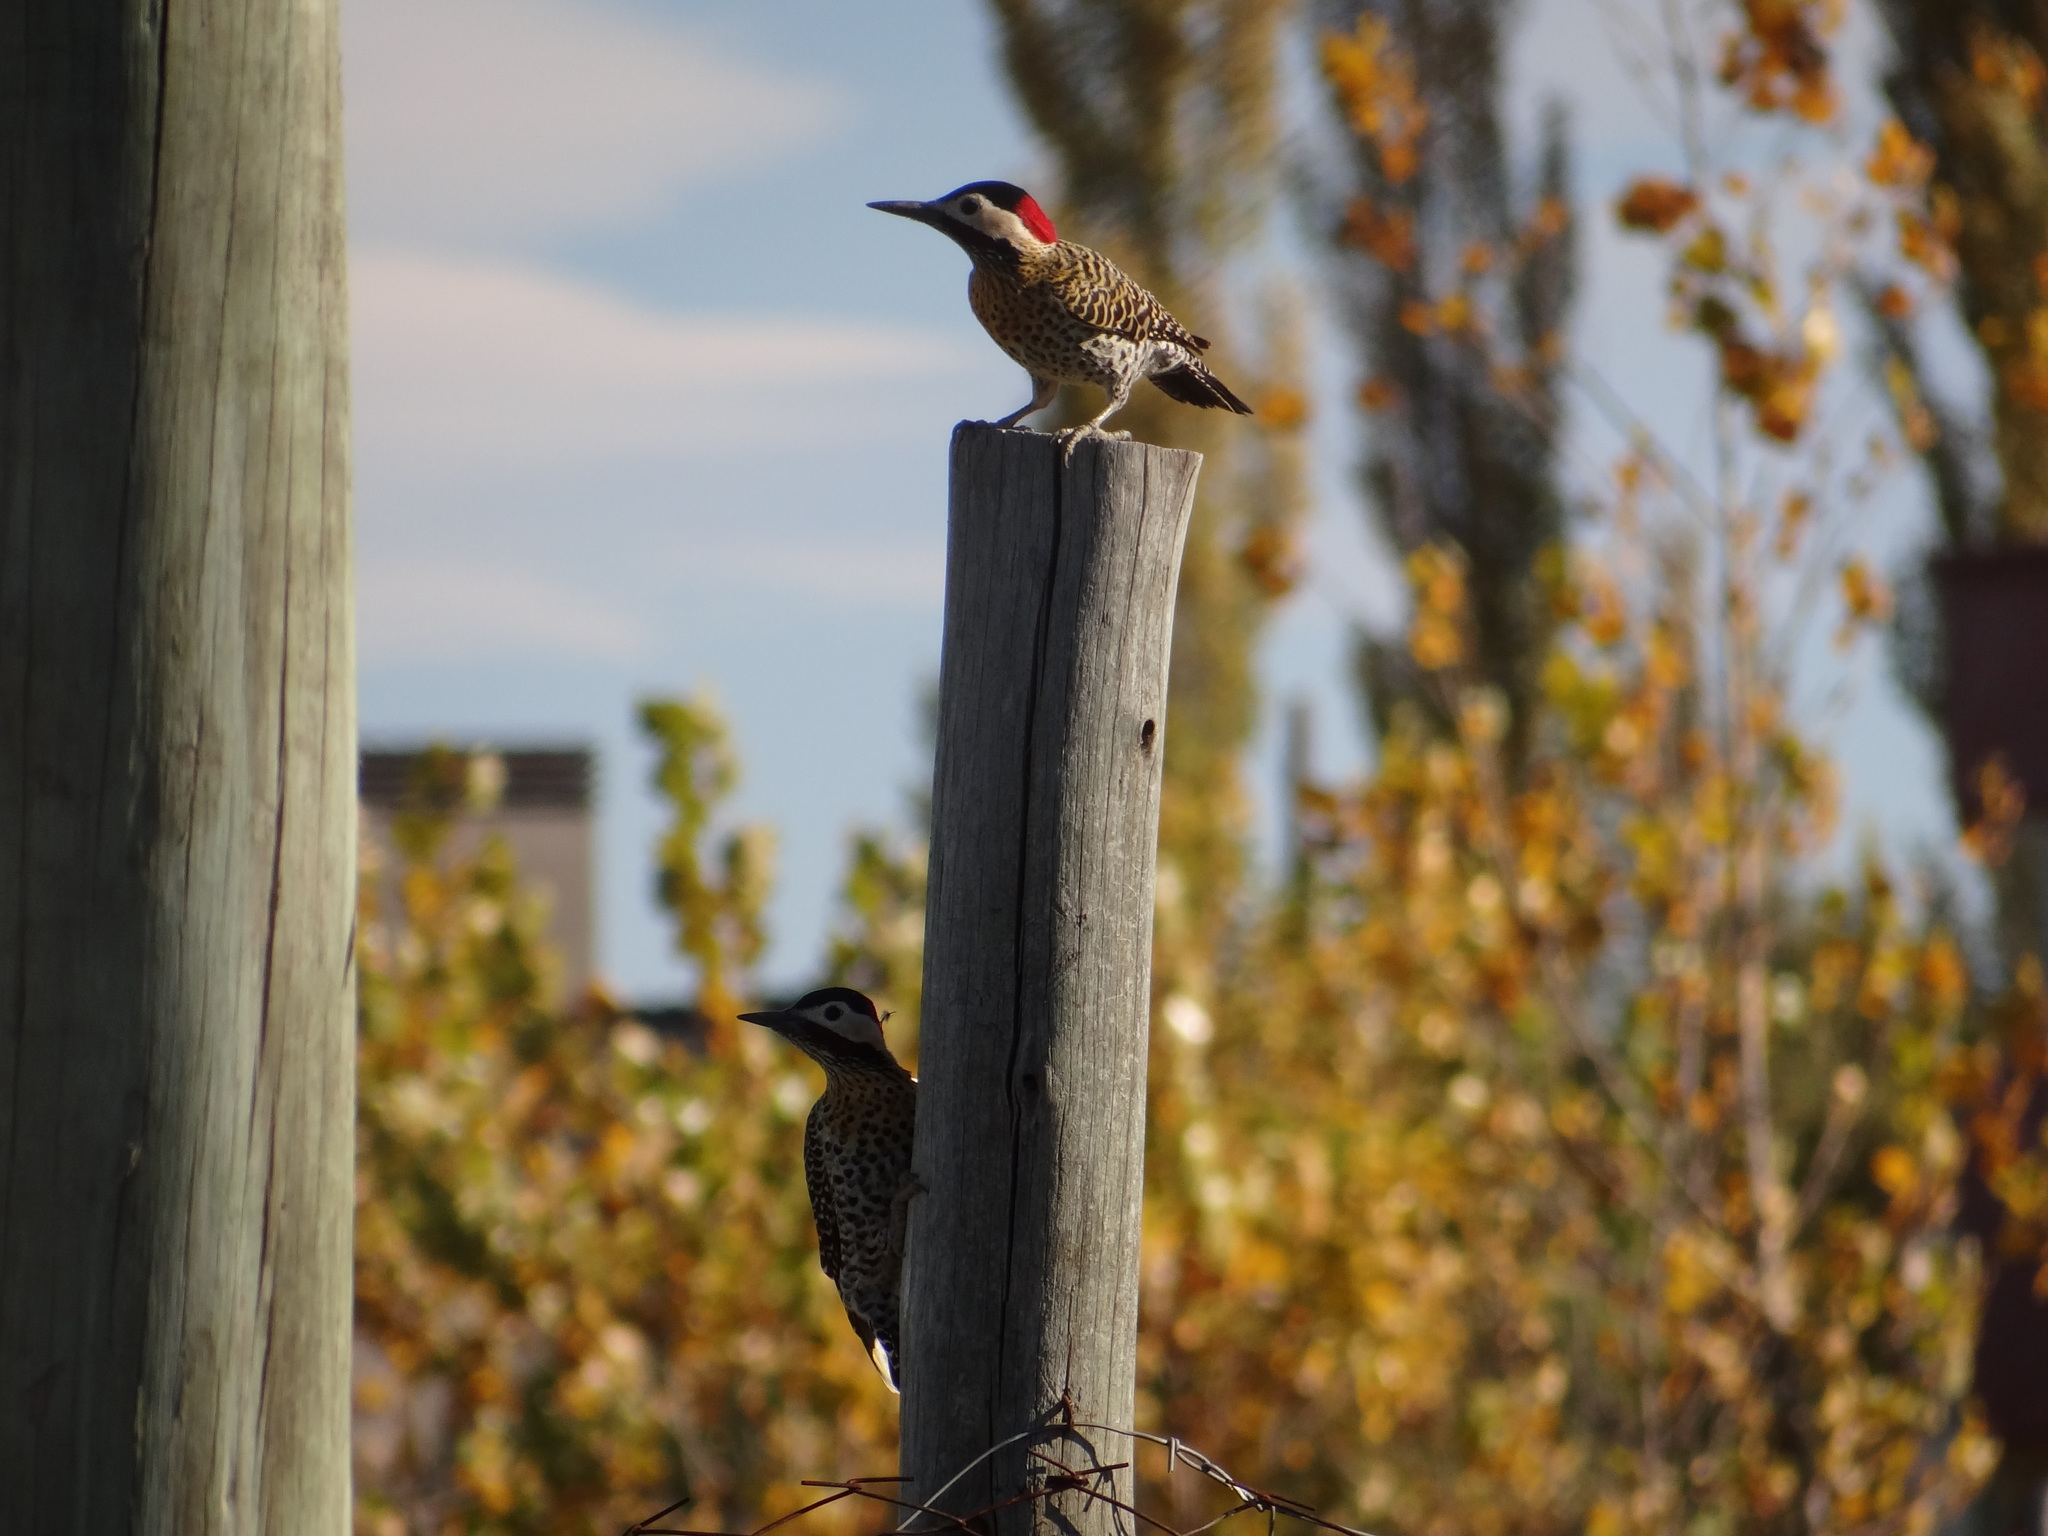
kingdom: Animalia
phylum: Chordata
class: Aves
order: Piciformes
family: Picidae
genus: Colaptes
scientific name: Colaptes melanochloros
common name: Green-barred woodpecker
